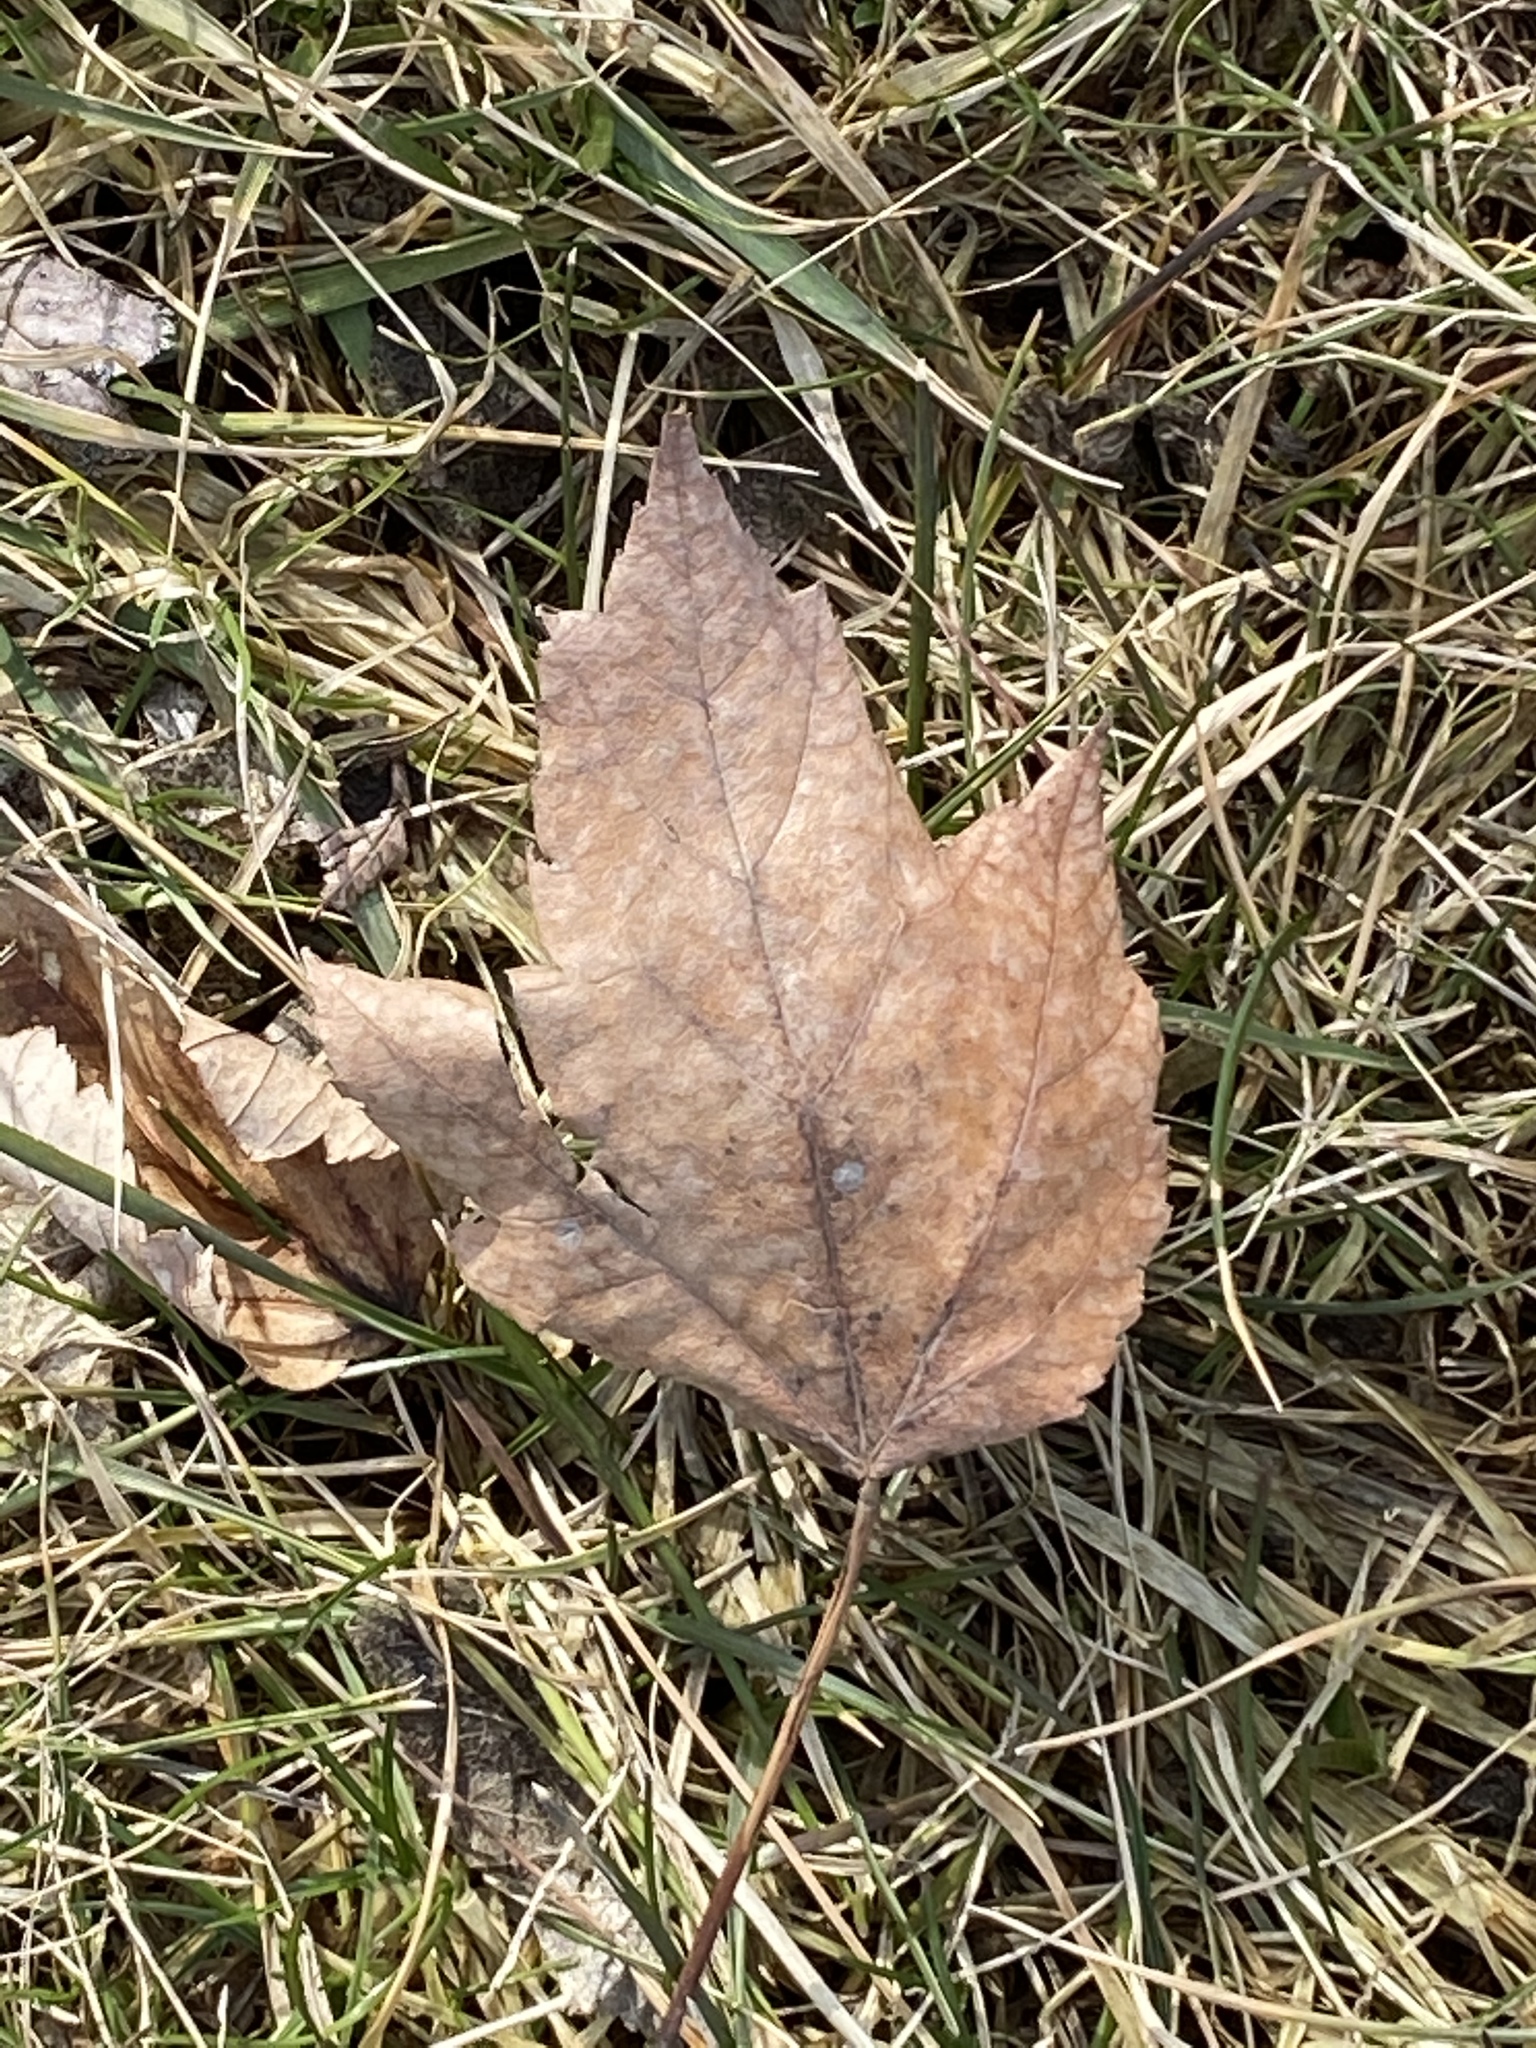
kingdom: Plantae
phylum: Tracheophyta
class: Magnoliopsida
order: Sapindales
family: Sapindaceae
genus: Acer
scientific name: Acer rubrum
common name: Red maple
